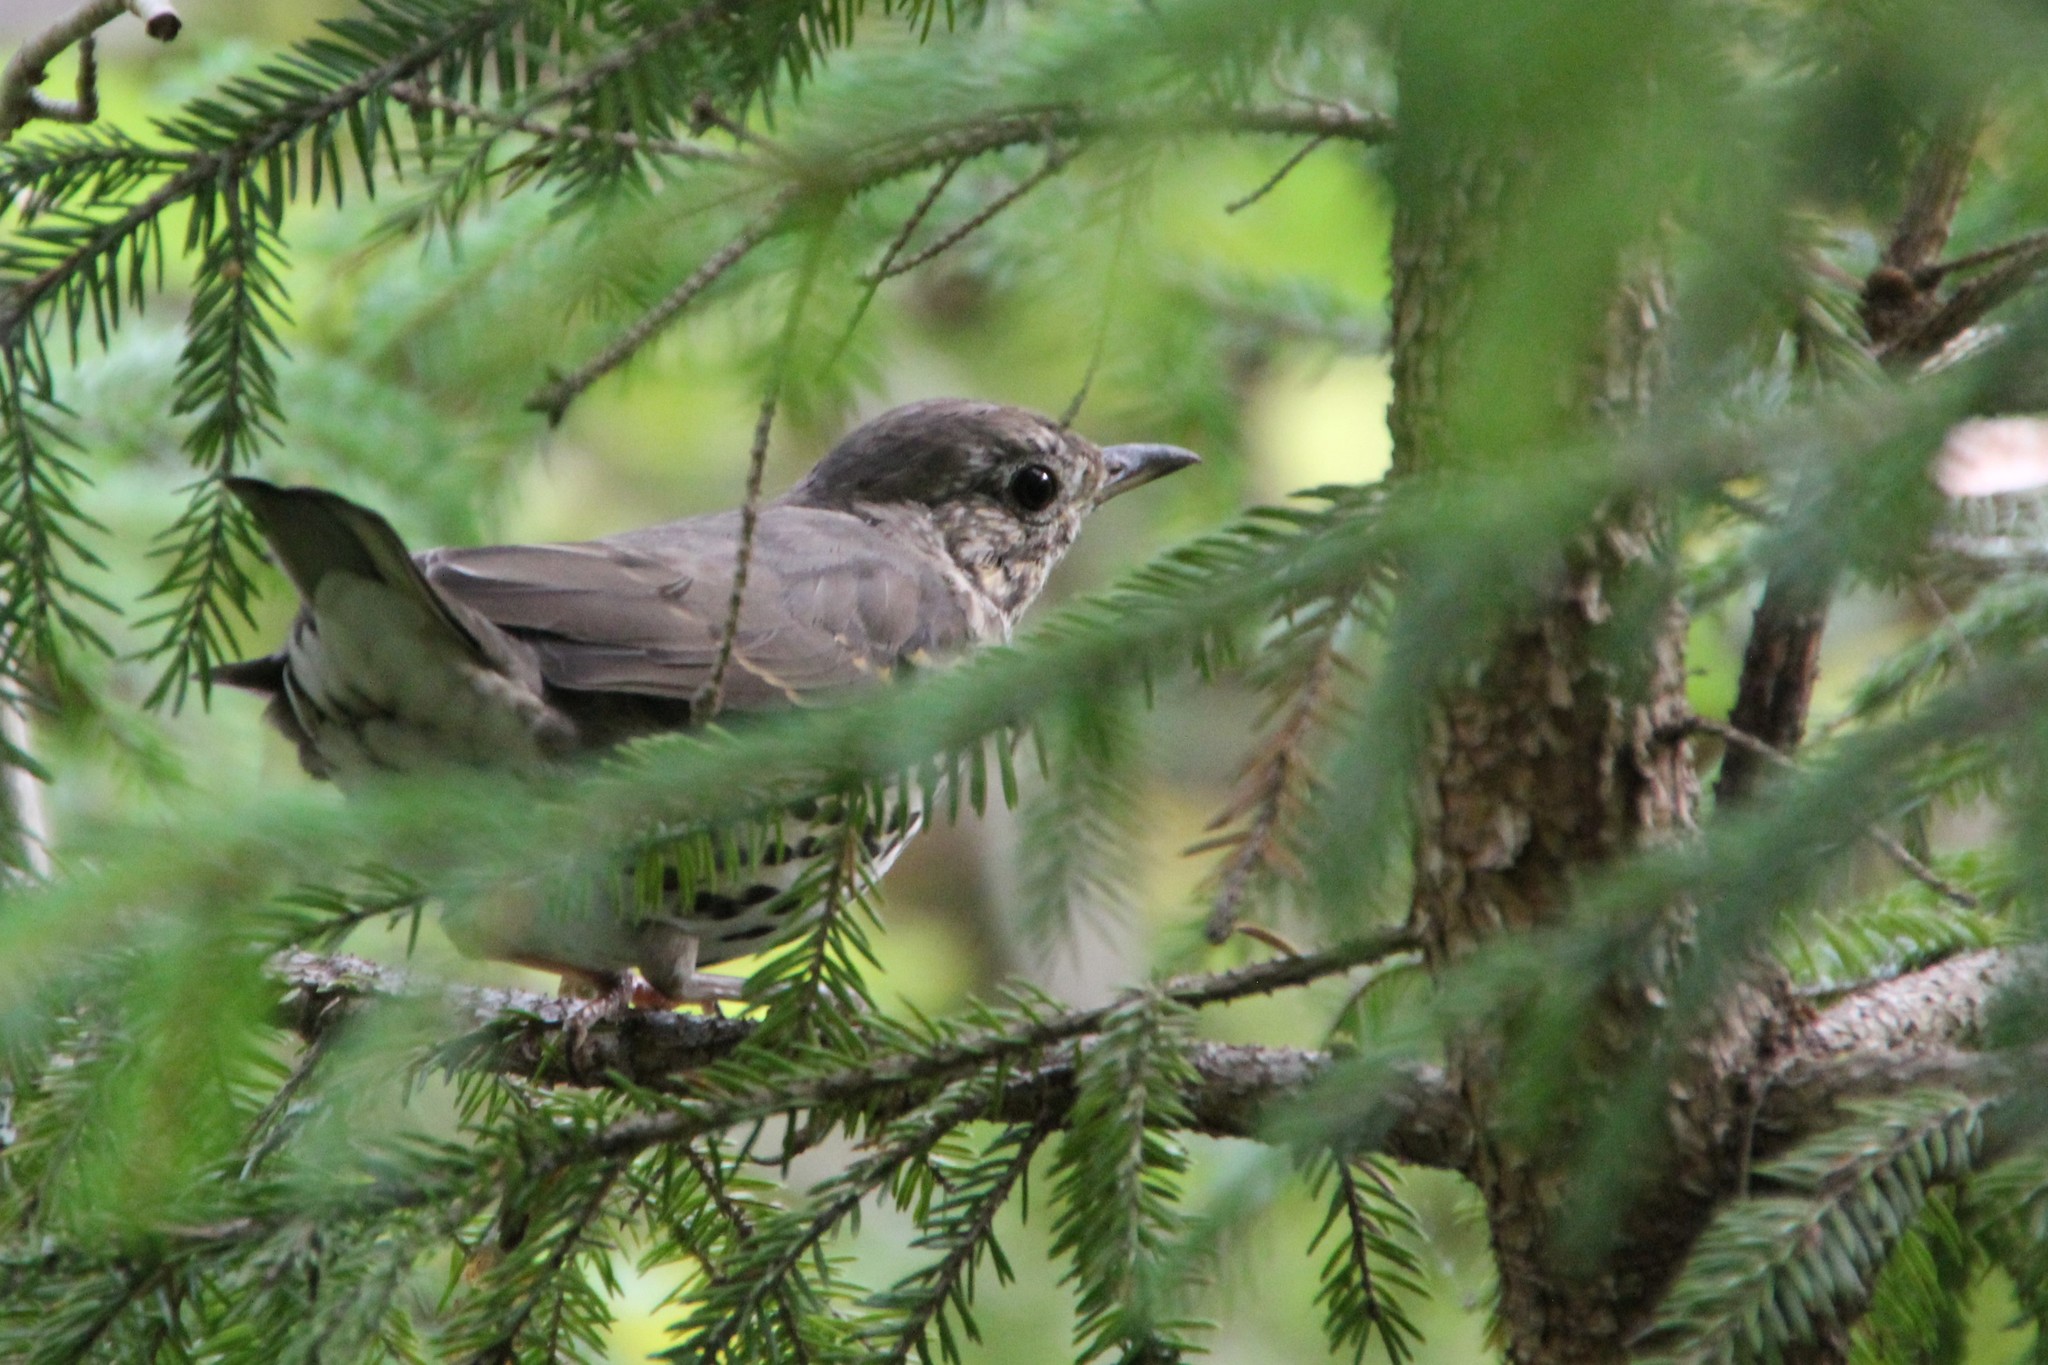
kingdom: Animalia
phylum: Chordata
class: Aves
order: Passeriformes
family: Turdidae
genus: Turdus
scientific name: Turdus philomelos
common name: Song thrush
